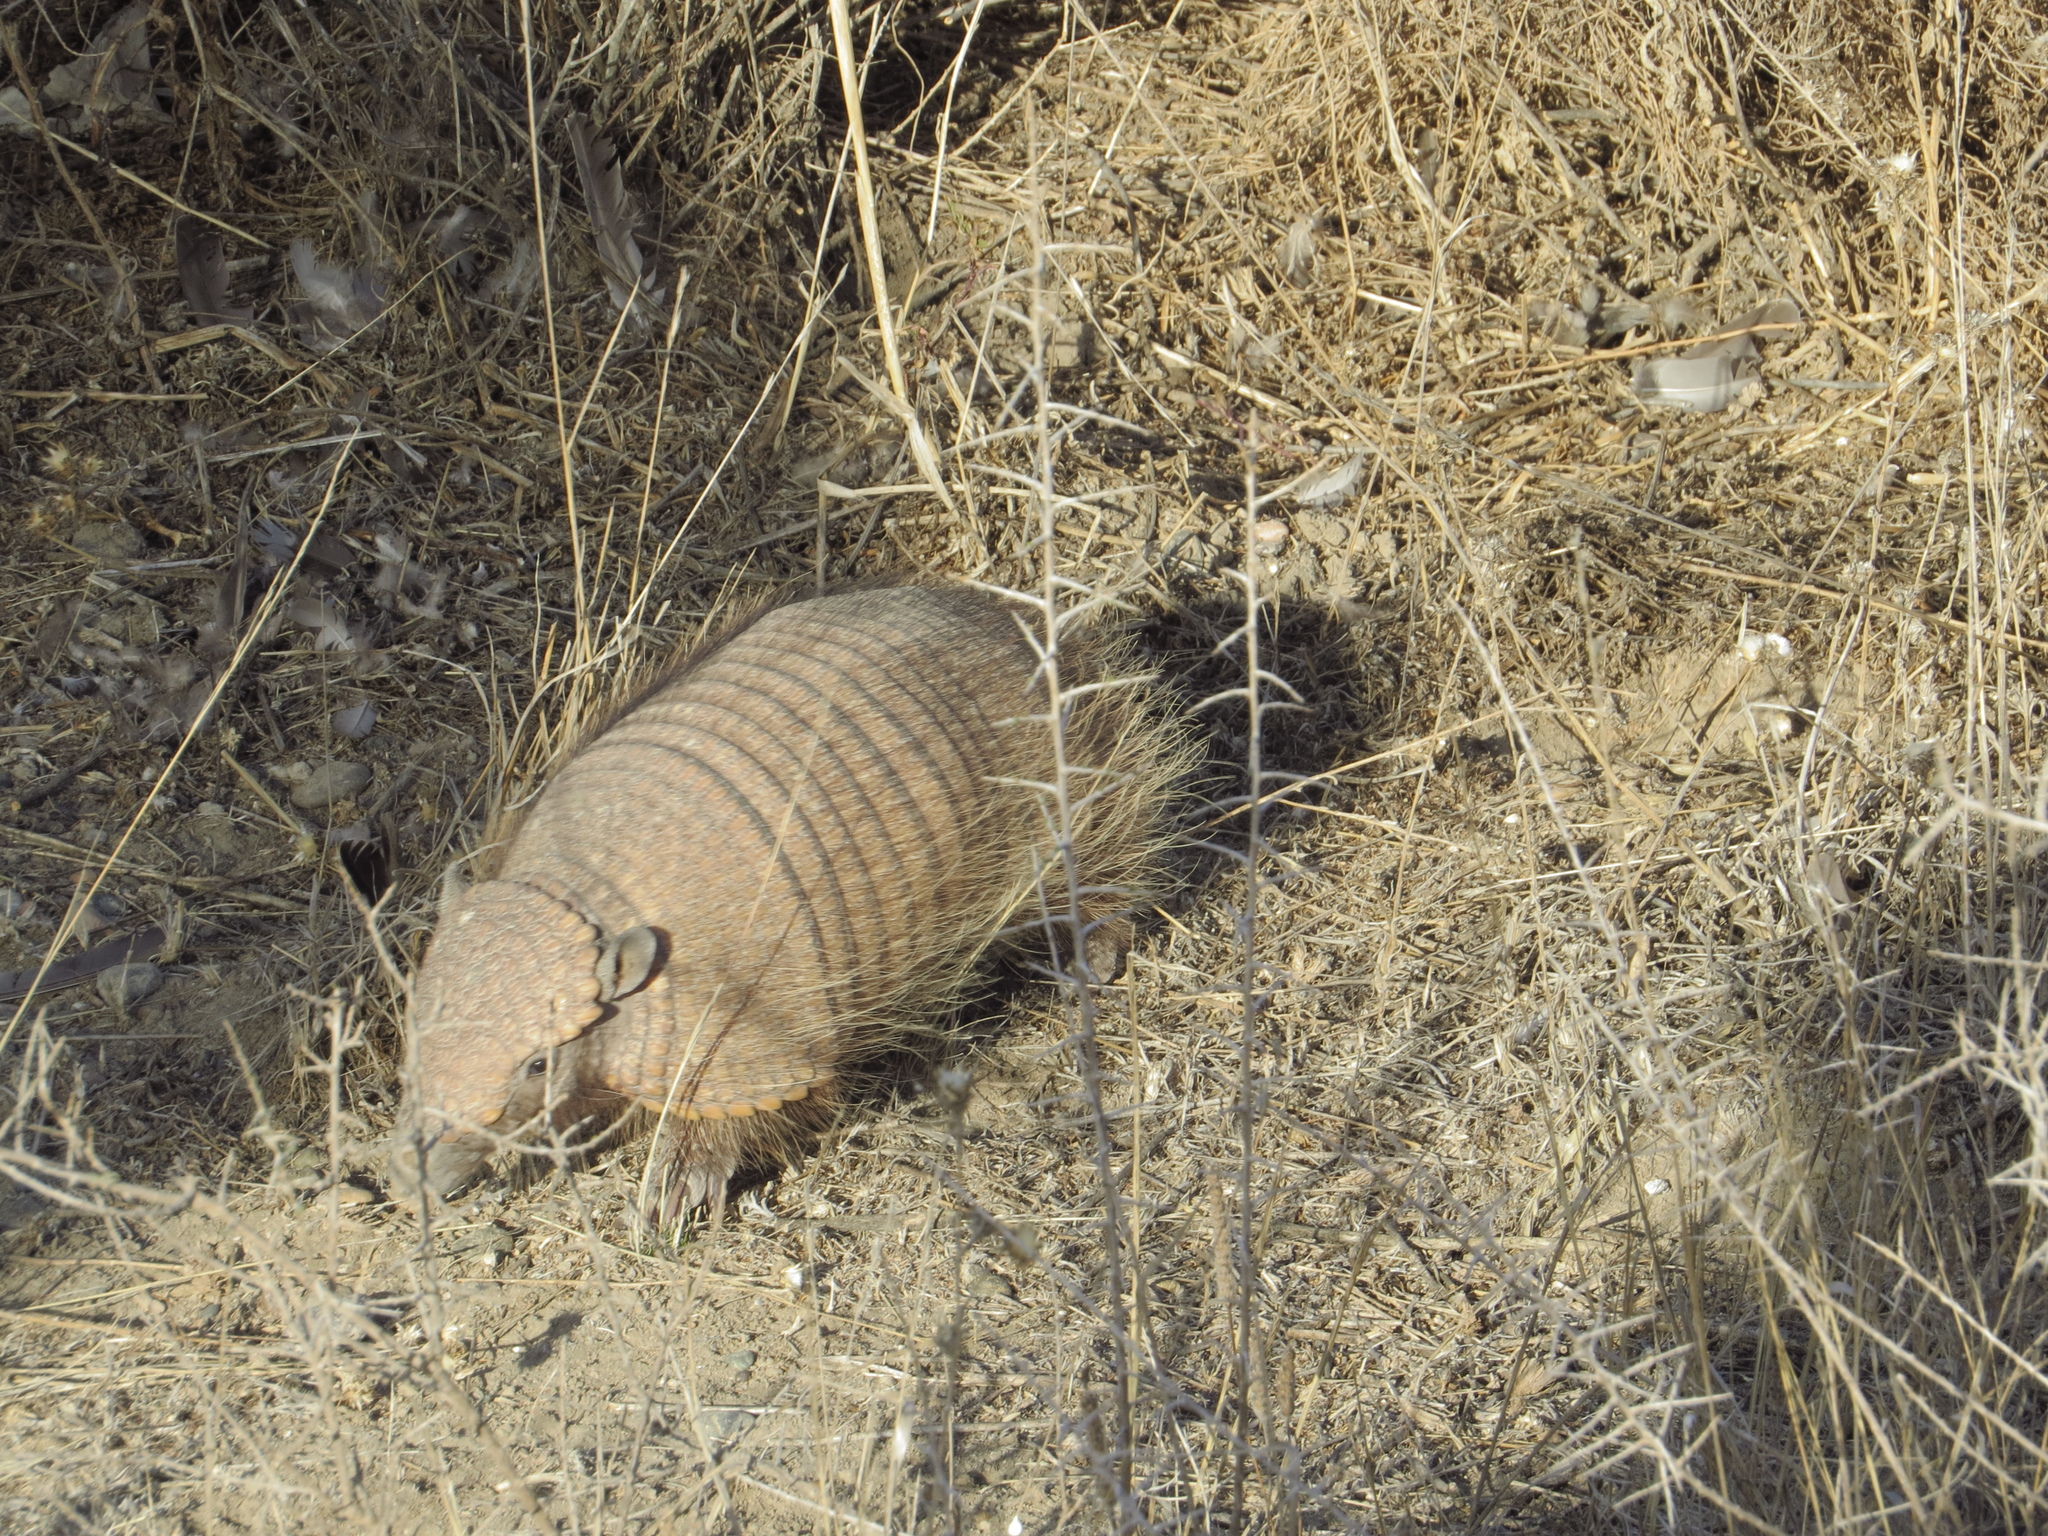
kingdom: Animalia
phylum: Chordata
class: Mammalia
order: Cingulata
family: Dasypodidae
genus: Chaetophractus
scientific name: Chaetophractus villosus
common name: Big hairy armadillo
